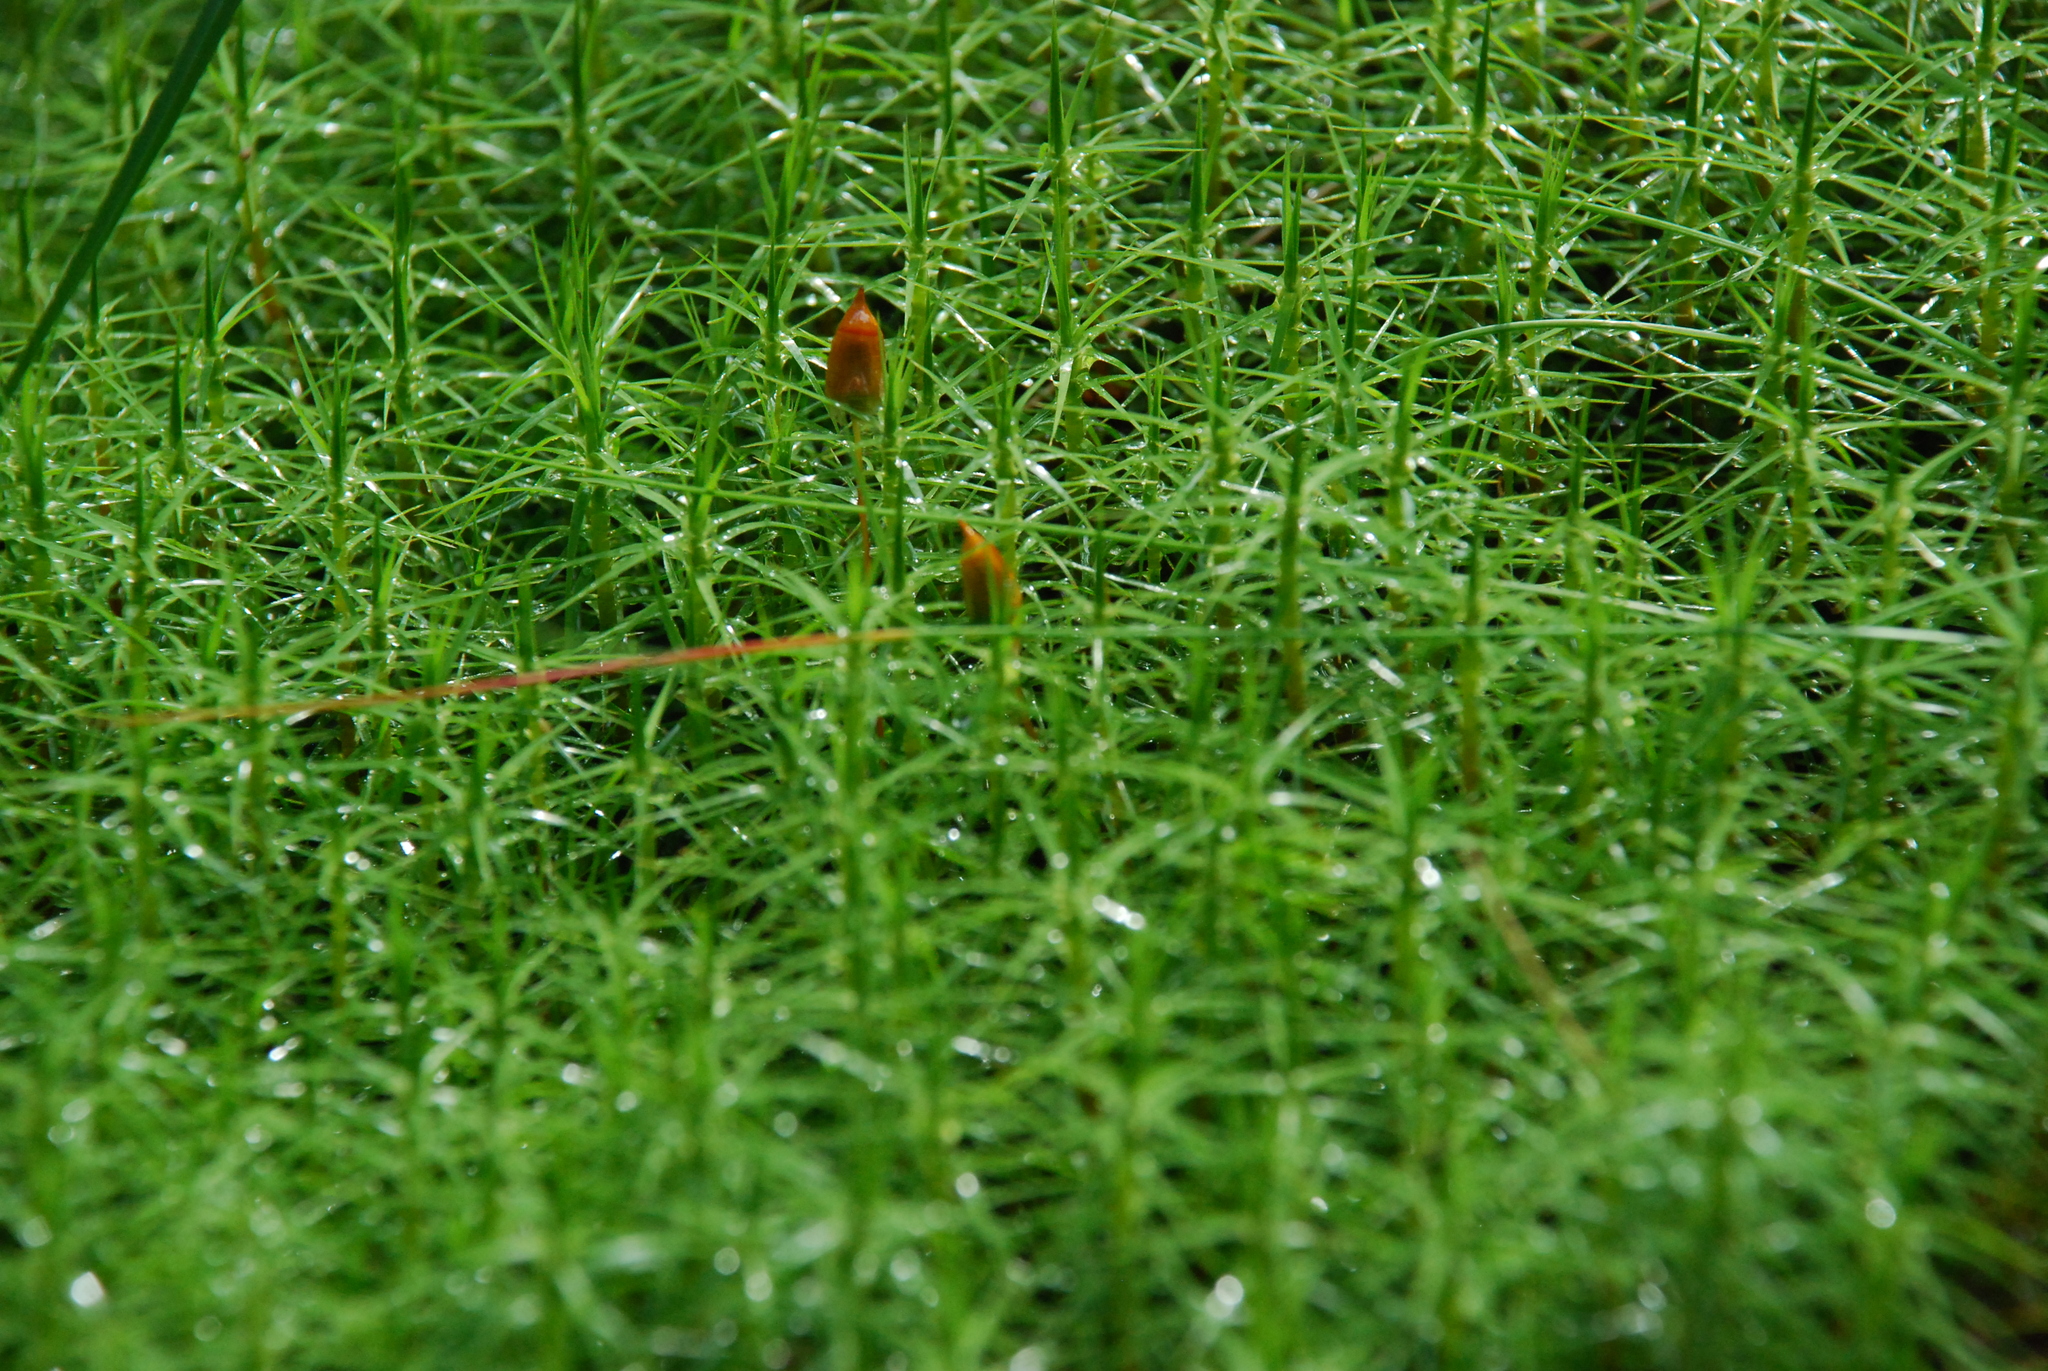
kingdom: Plantae
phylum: Bryophyta
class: Polytrichopsida
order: Polytrichales
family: Polytrichaceae
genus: Polytrichum
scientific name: Polytrichum commune
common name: Common haircap
